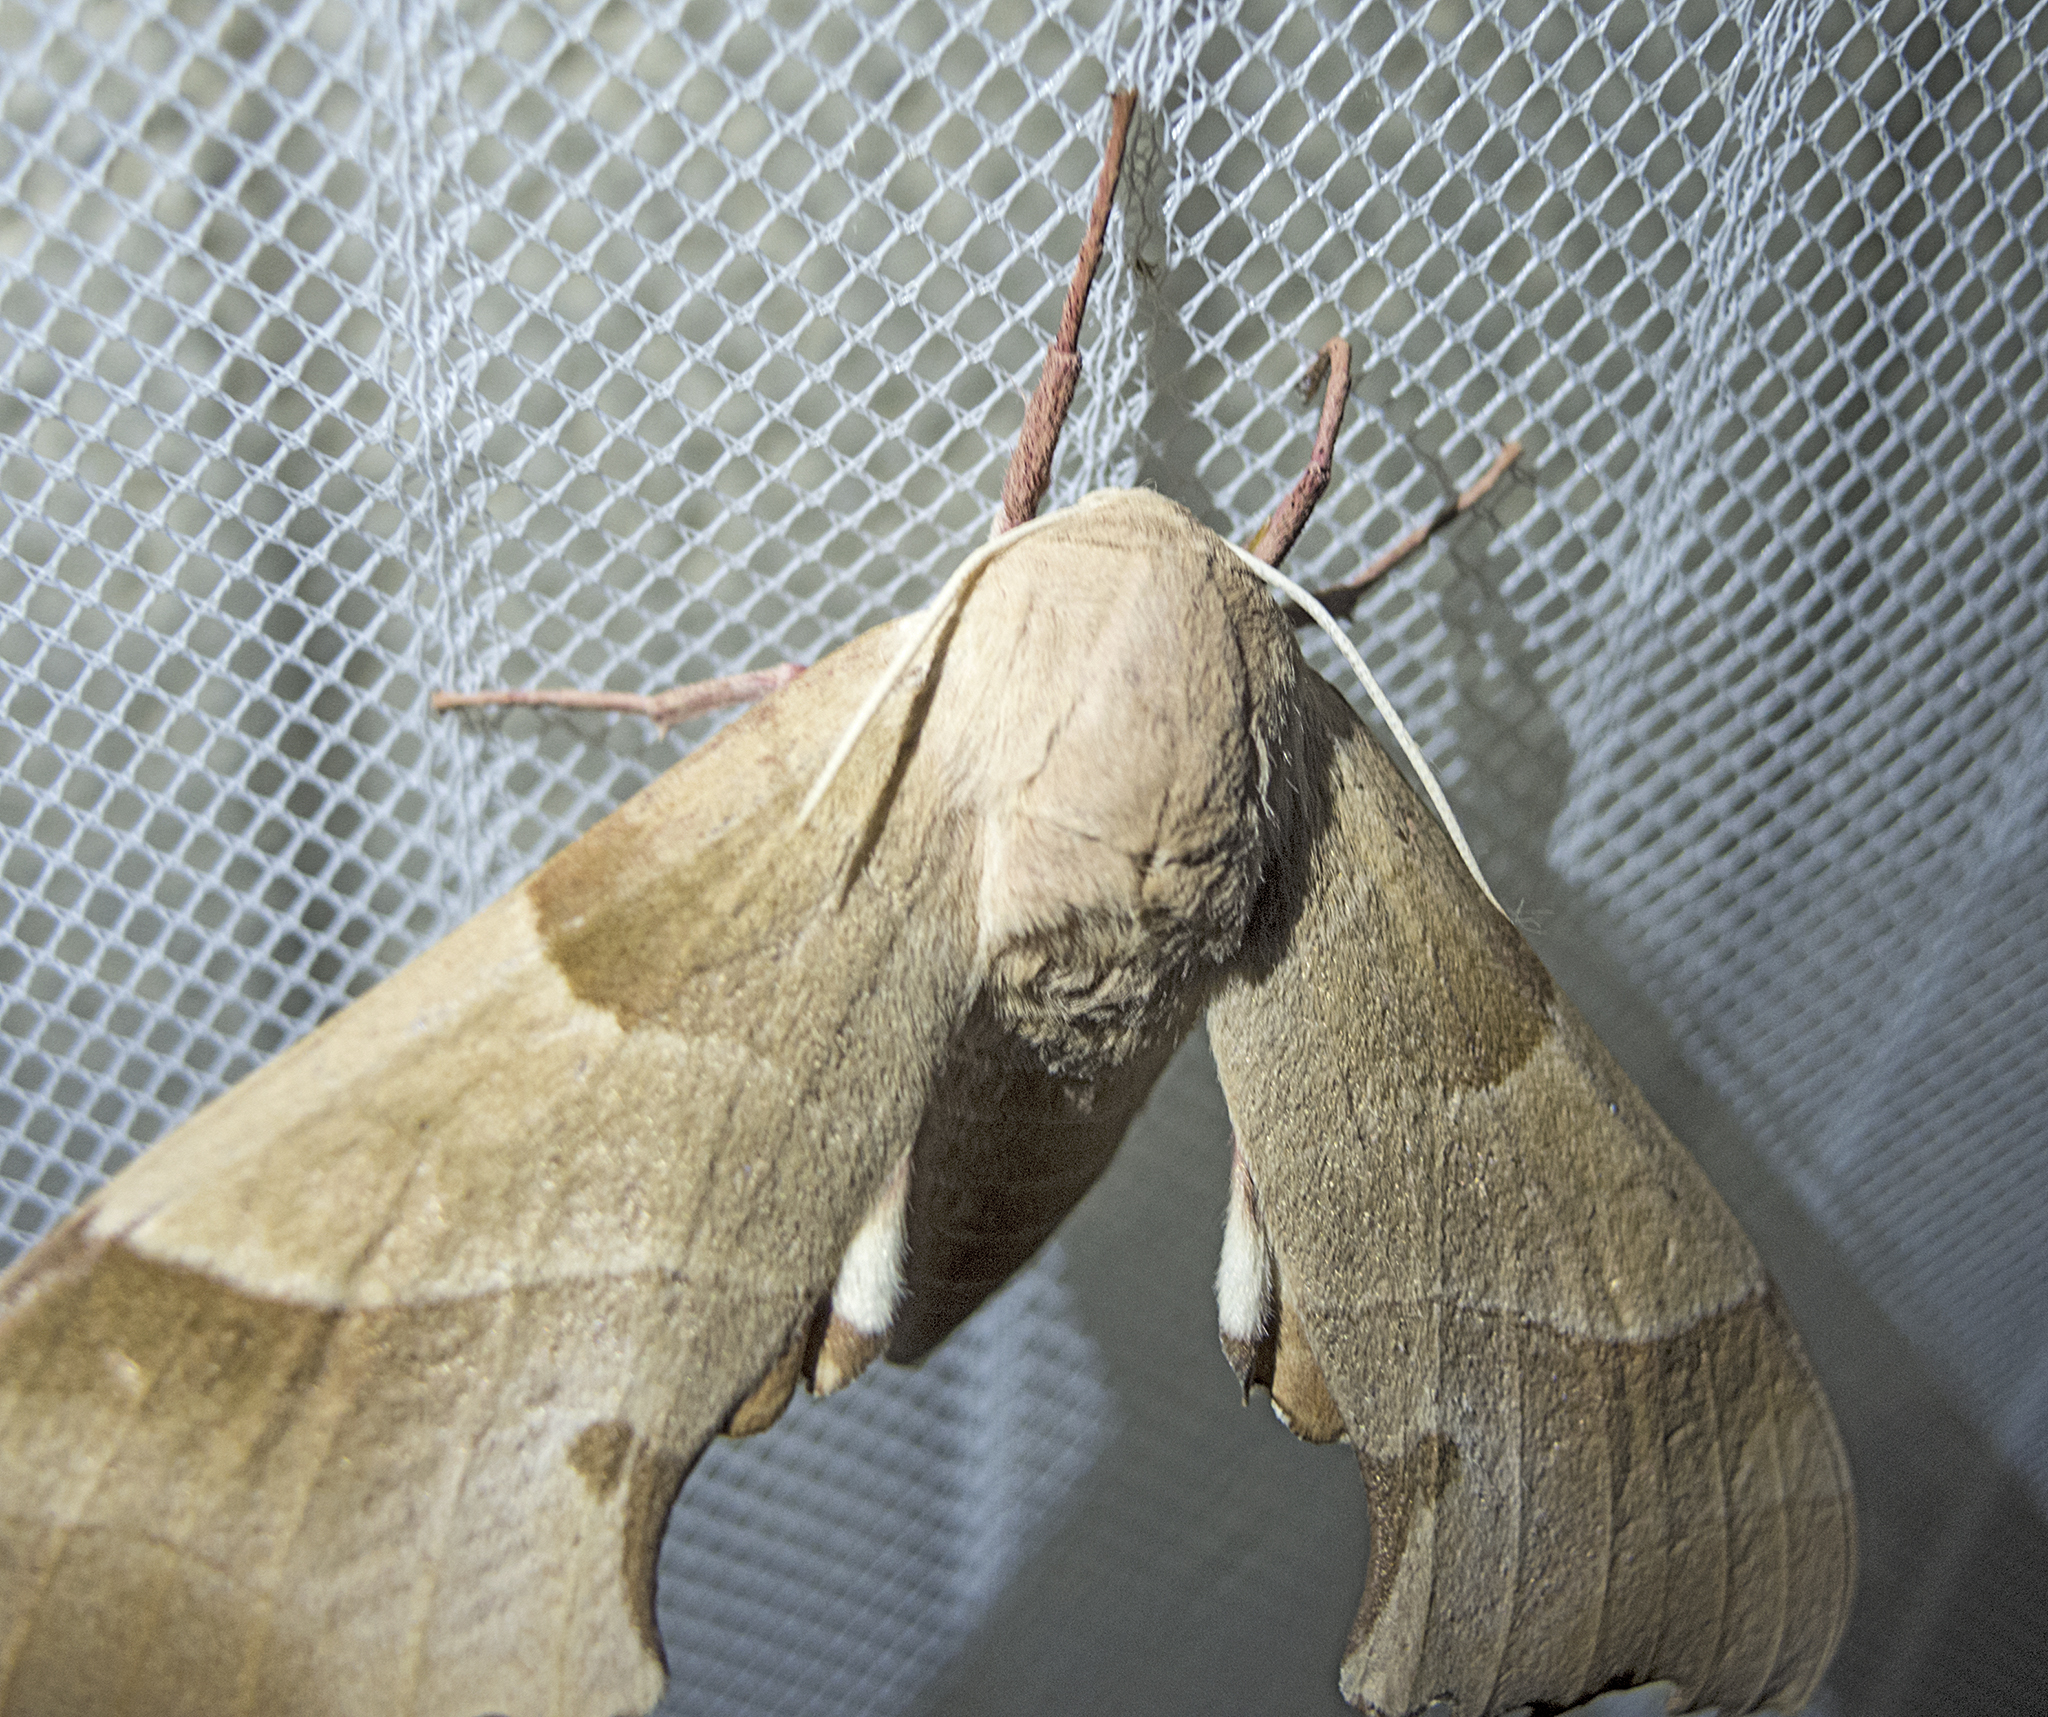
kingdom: Animalia
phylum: Arthropoda
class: Insecta
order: Lepidoptera
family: Sphingidae
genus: Marumba
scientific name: Marumba quercus
